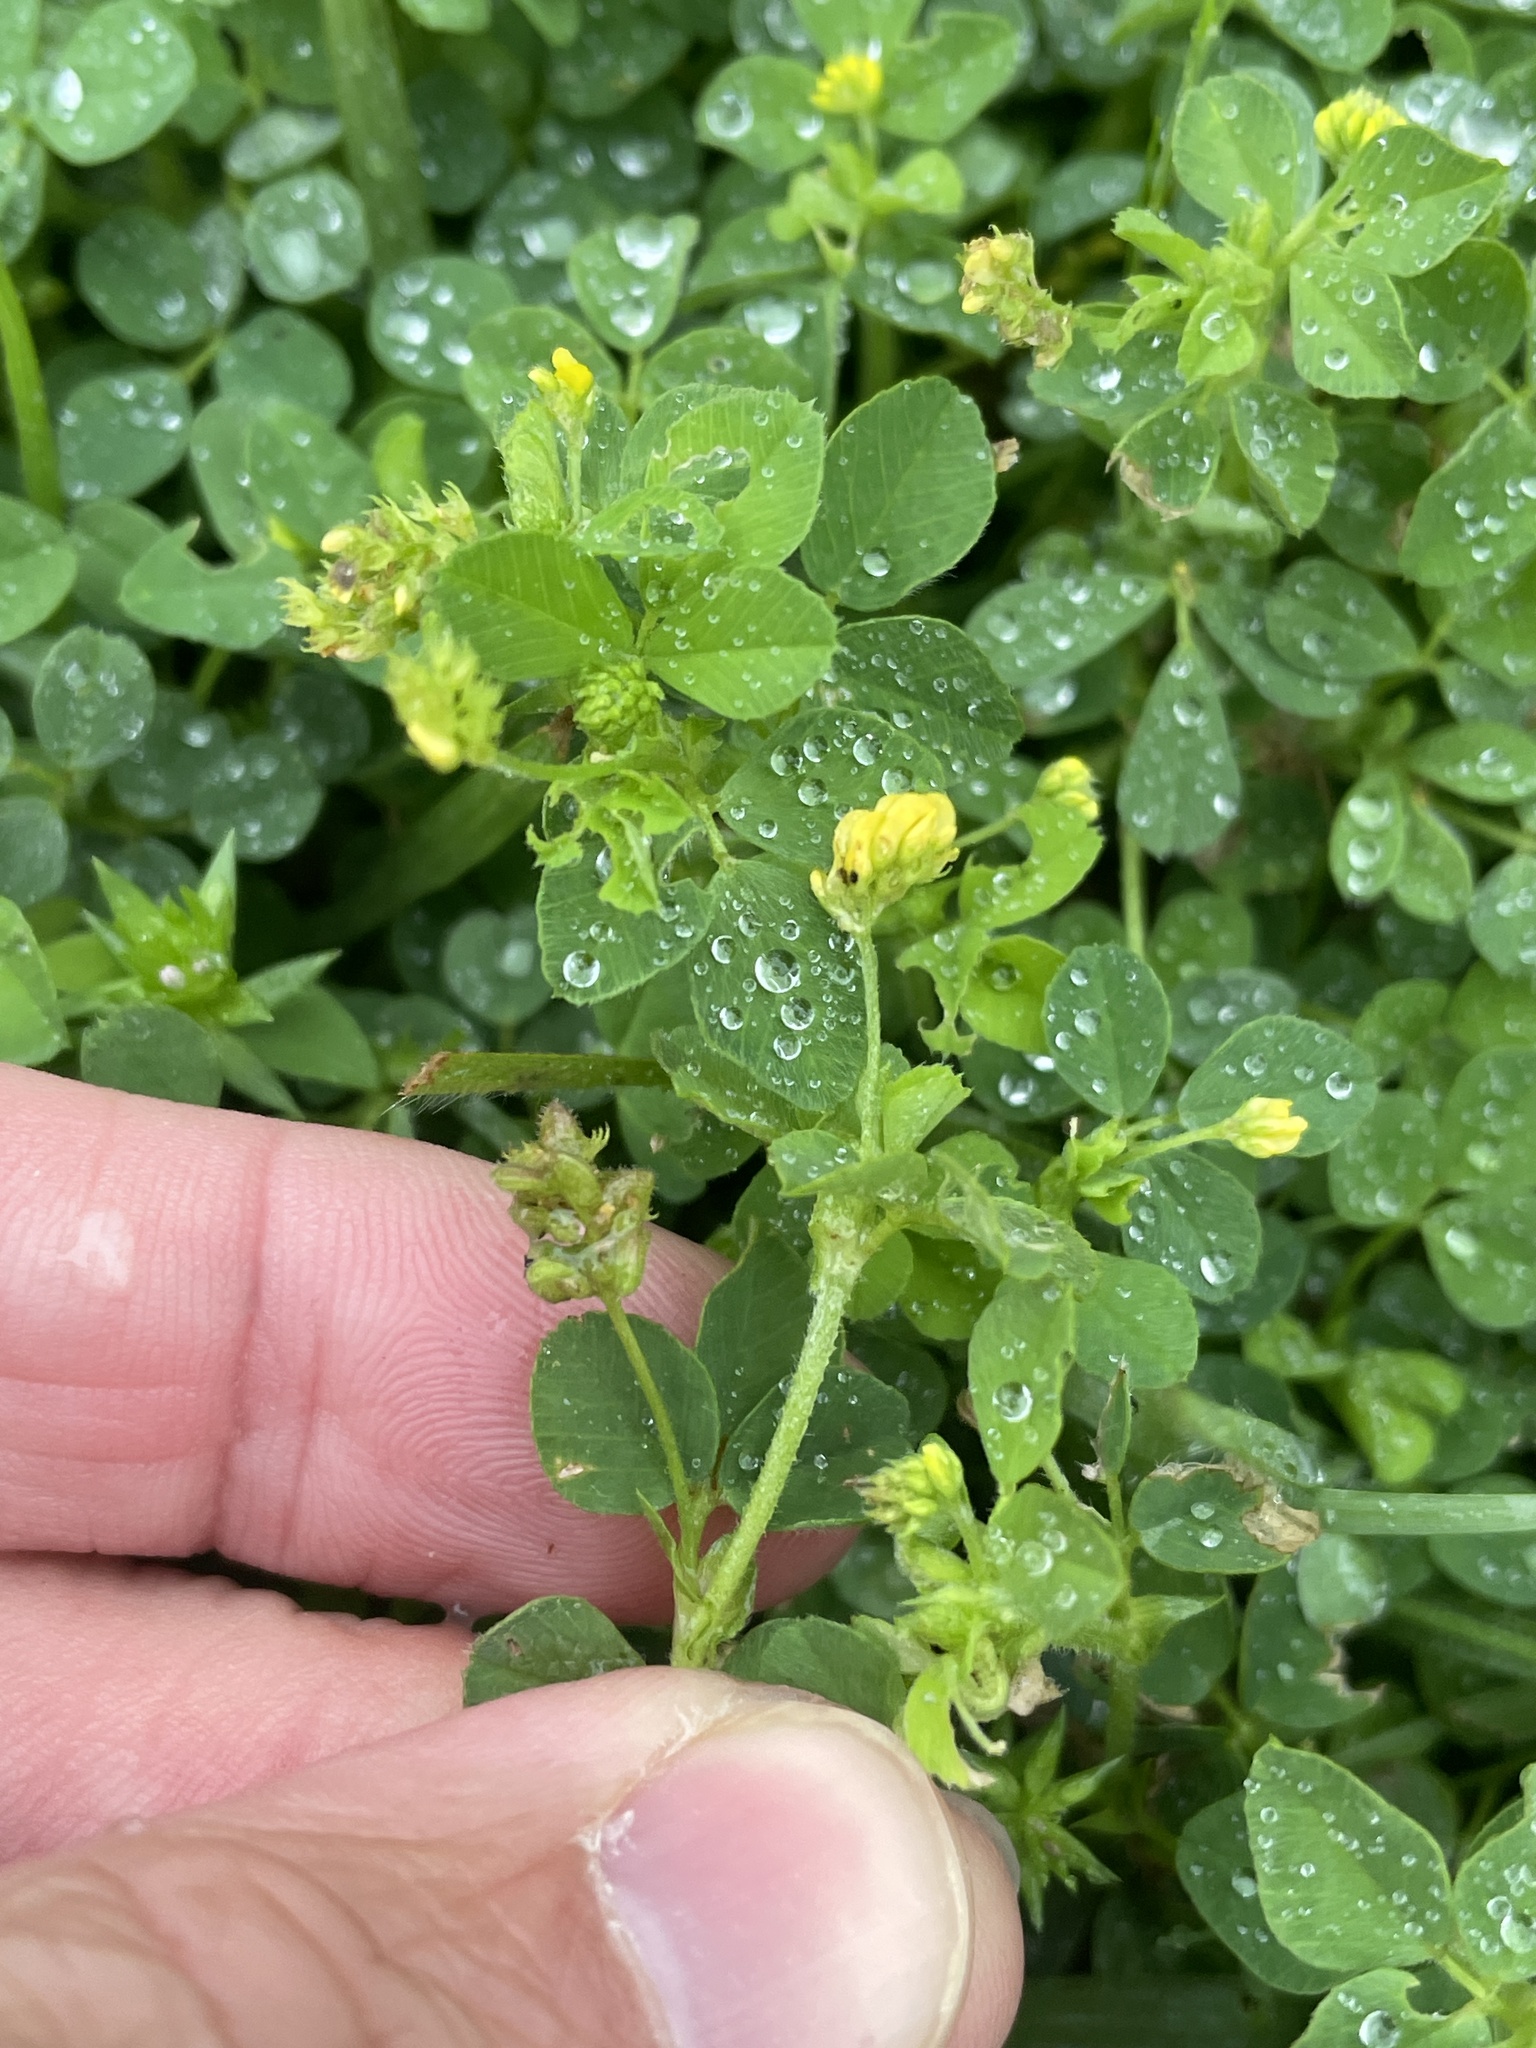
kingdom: Plantae
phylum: Tracheophyta
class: Magnoliopsida
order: Fabales
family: Fabaceae
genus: Medicago
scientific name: Medicago lupulina
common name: Black medick
